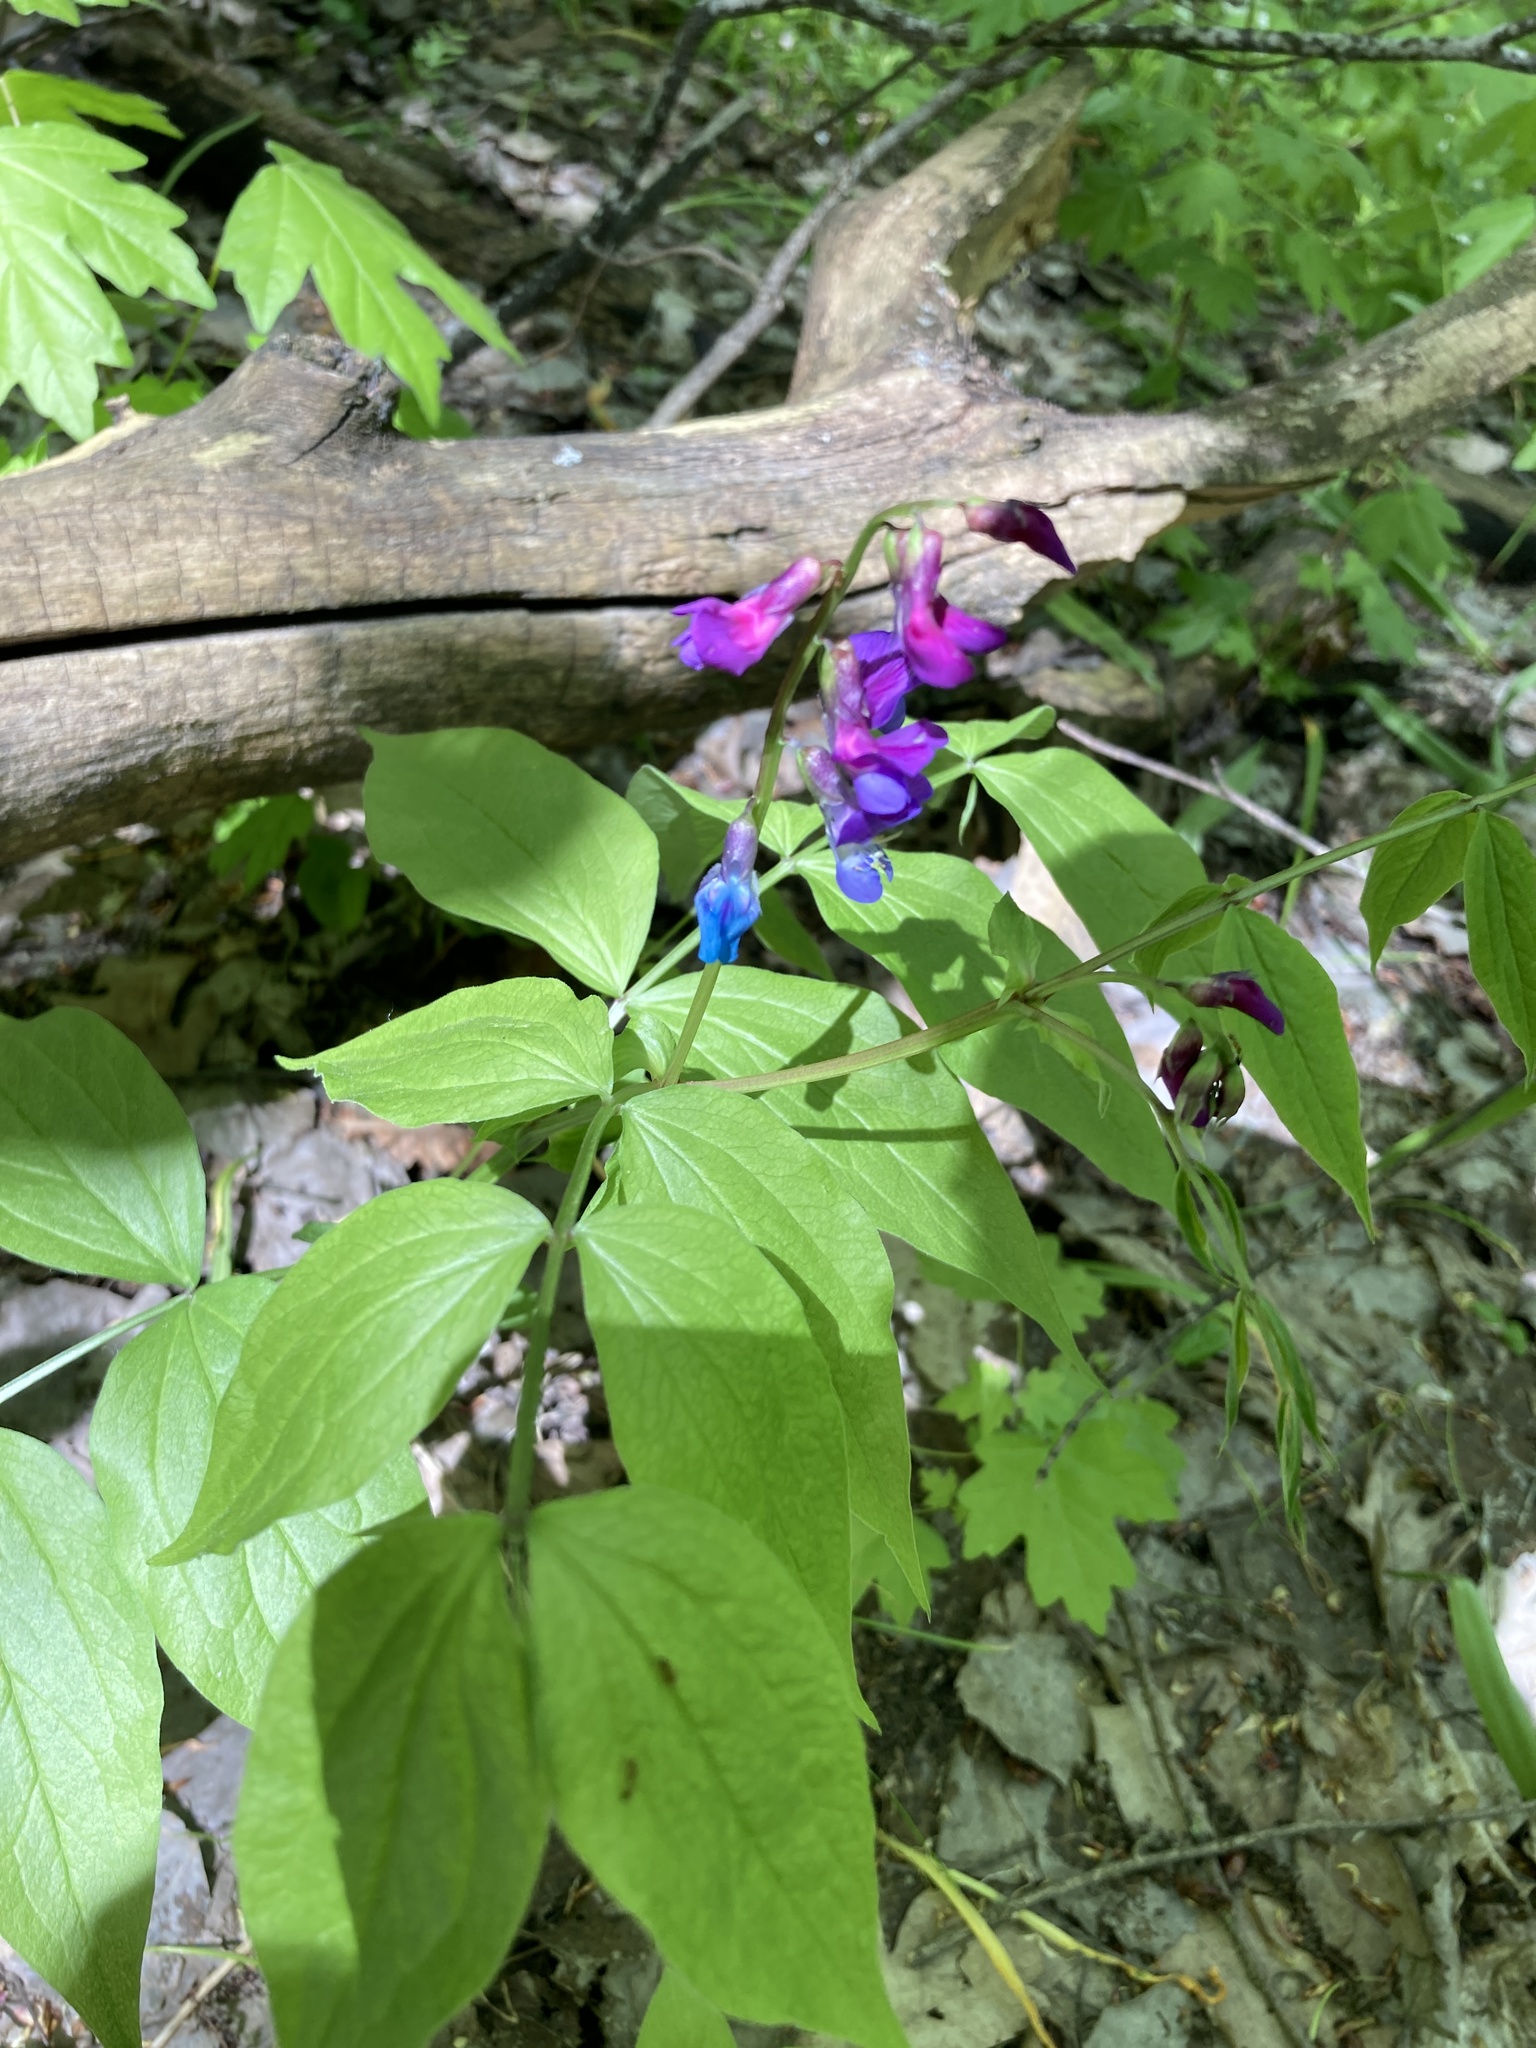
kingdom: Plantae
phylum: Tracheophyta
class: Magnoliopsida
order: Fabales
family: Fabaceae
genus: Lathyrus
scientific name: Lathyrus vernus
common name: Spring pea
